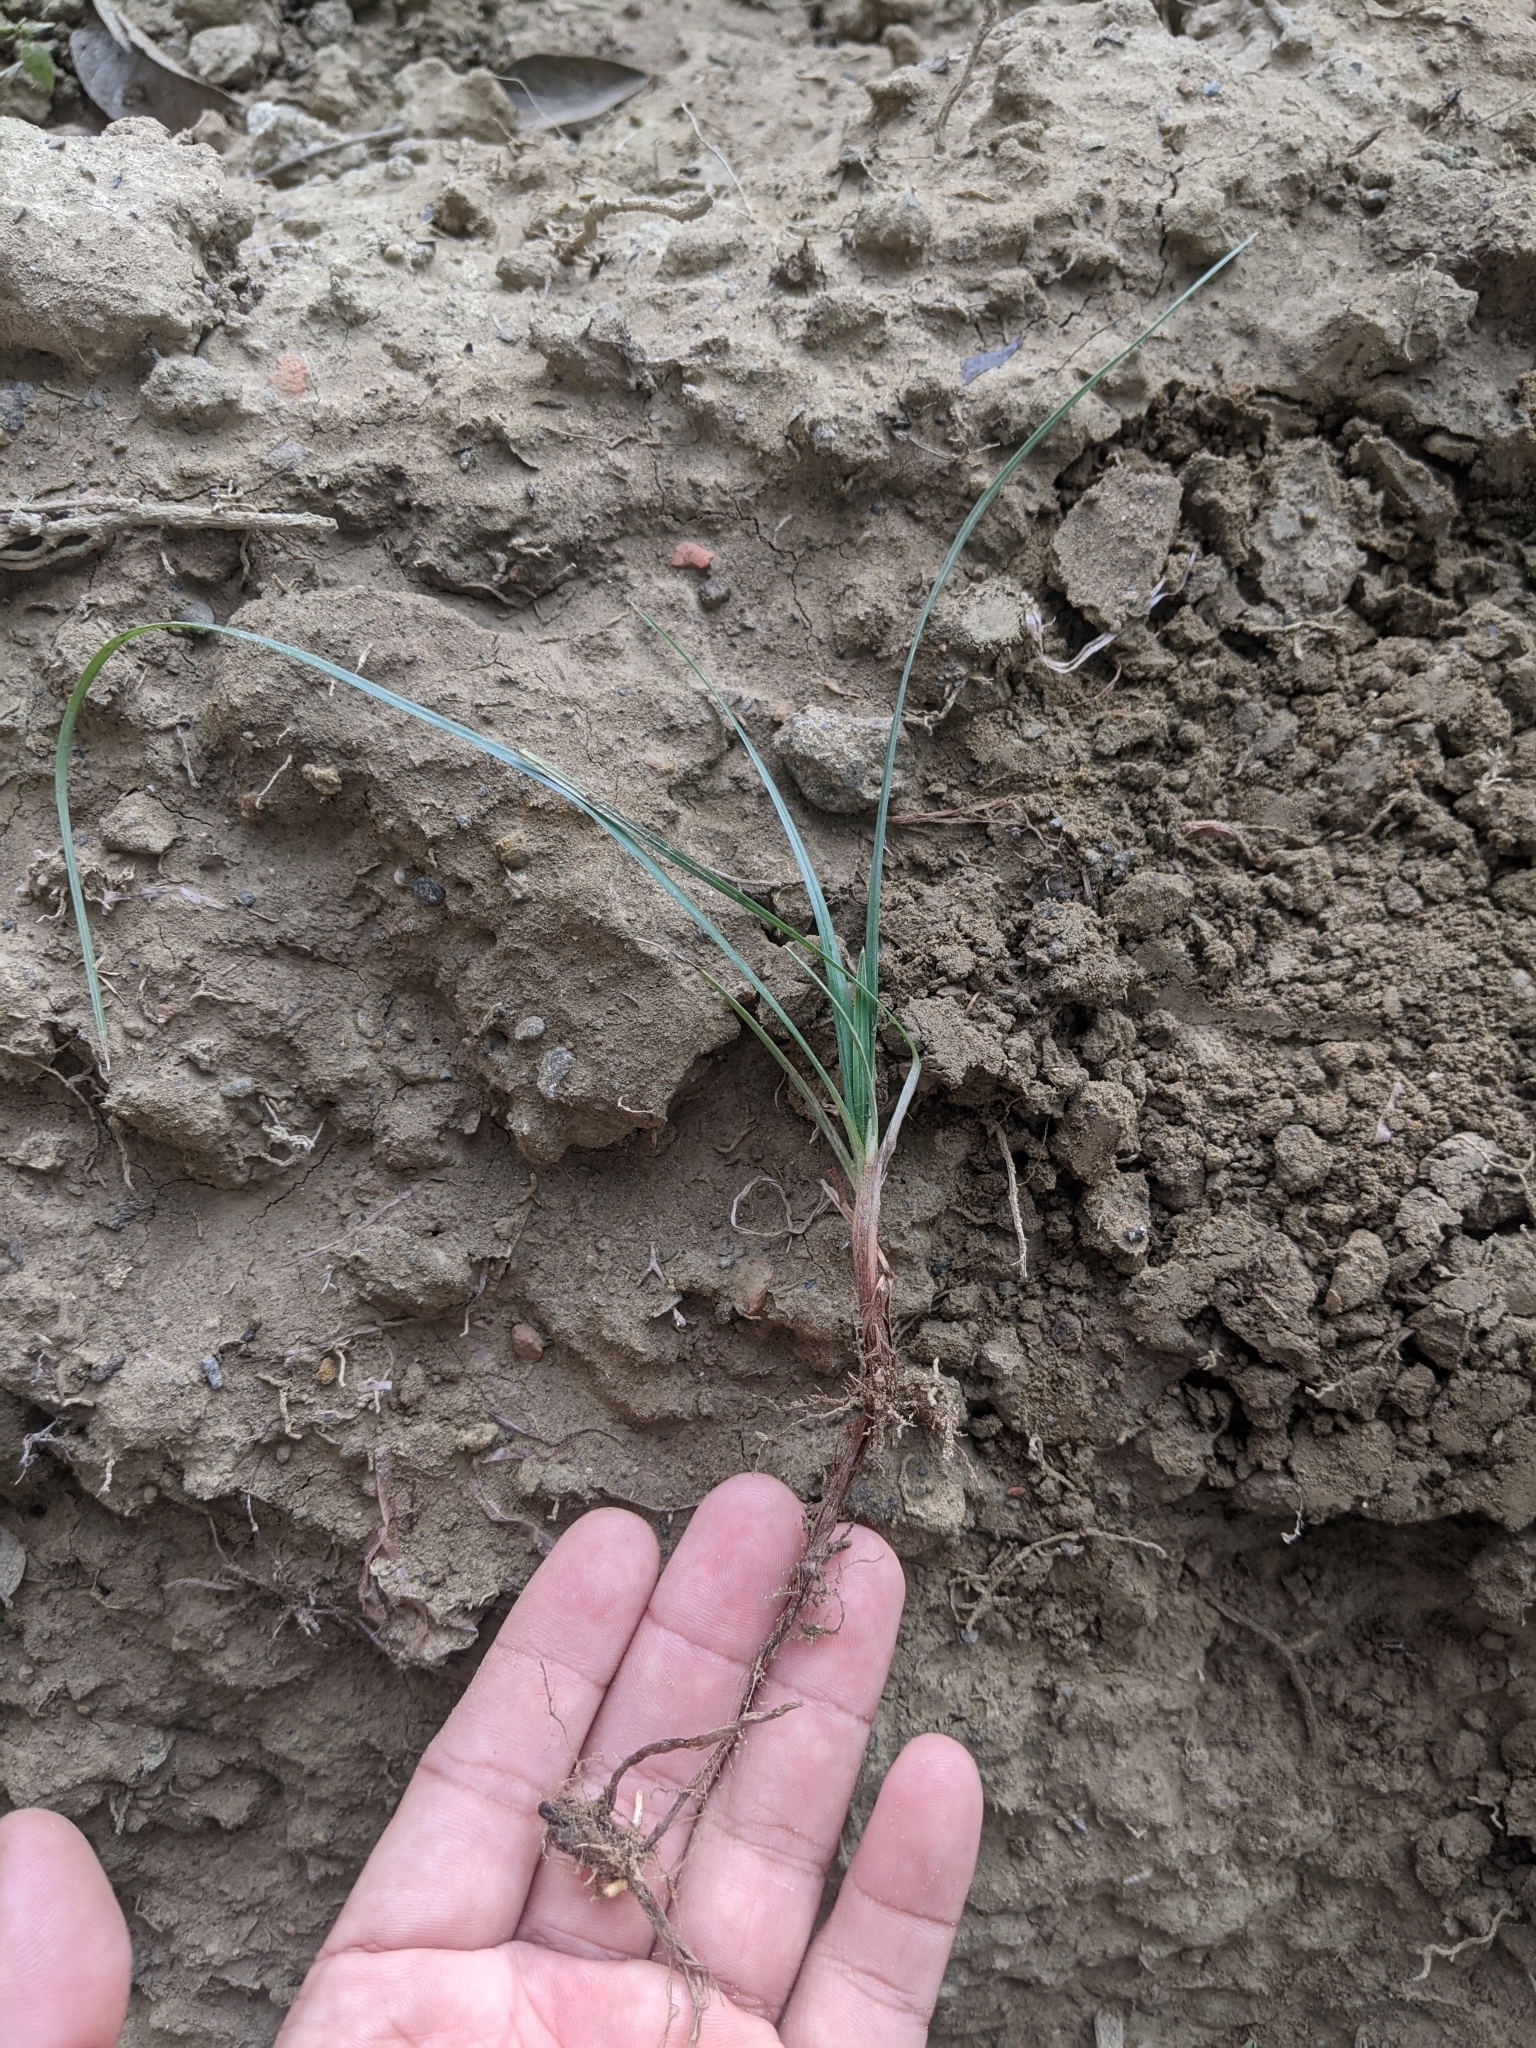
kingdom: Plantae
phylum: Tracheophyta
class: Liliopsida
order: Poales
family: Cyperaceae
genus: Cyperus
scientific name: Cyperus rotundus
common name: Nutgrass
